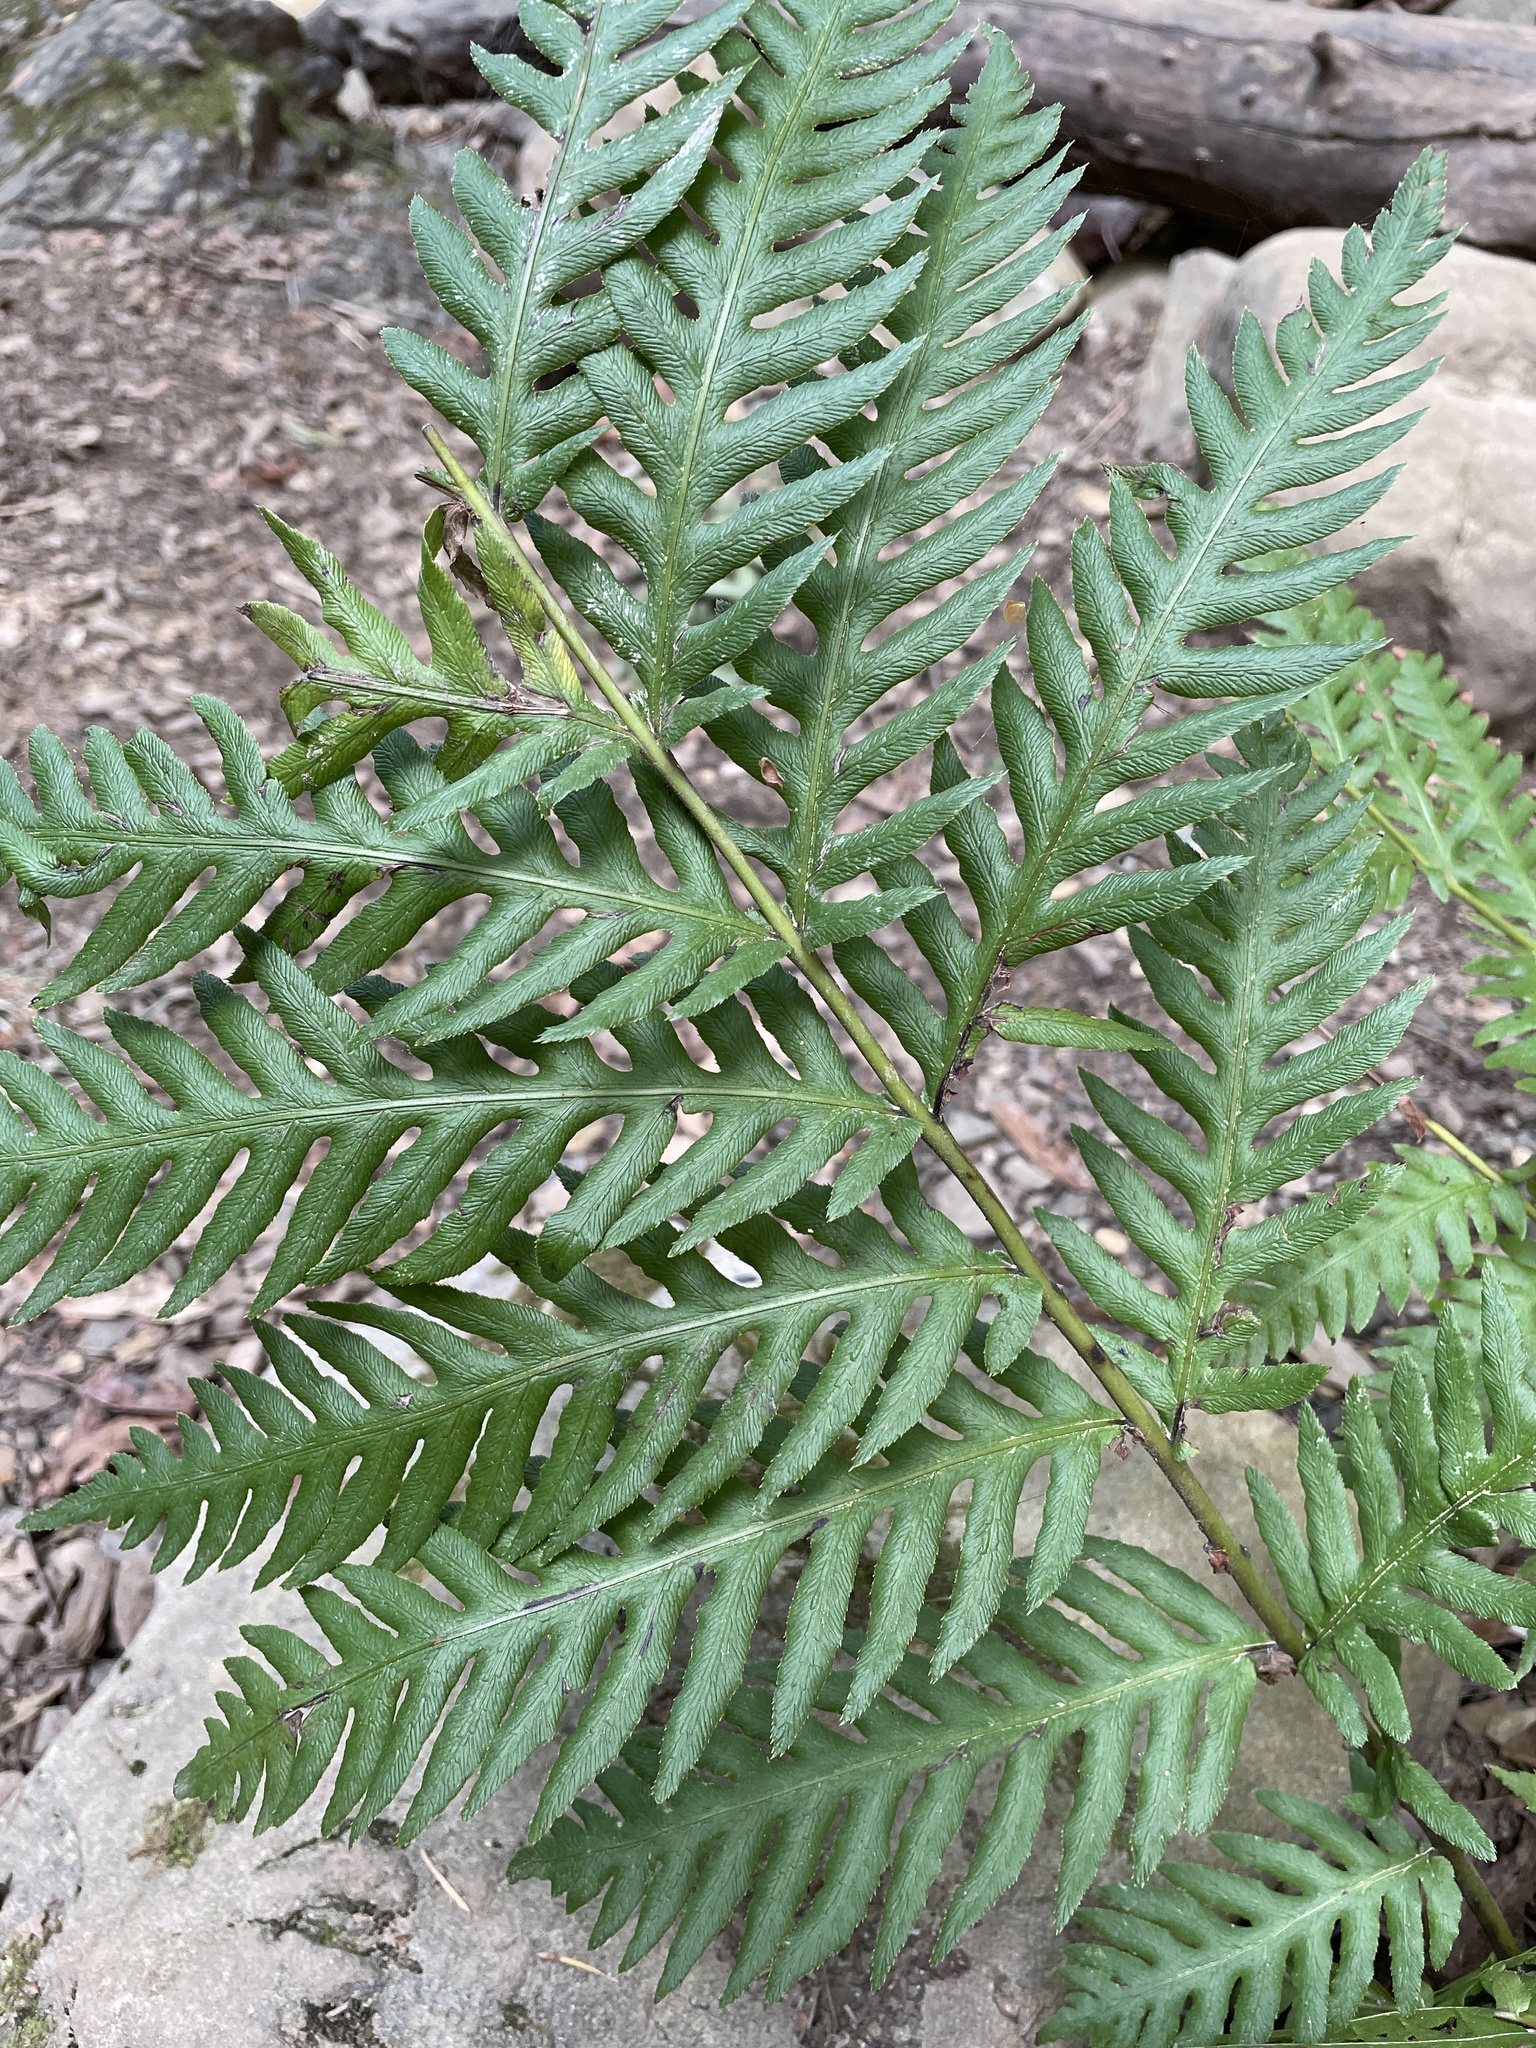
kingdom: Plantae
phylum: Tracheophyta
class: Polypodiopsida
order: Polypodiales
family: Blechnaceae
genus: Woodwardia
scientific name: Woodwardia fimbriata
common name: Giant chain fern
